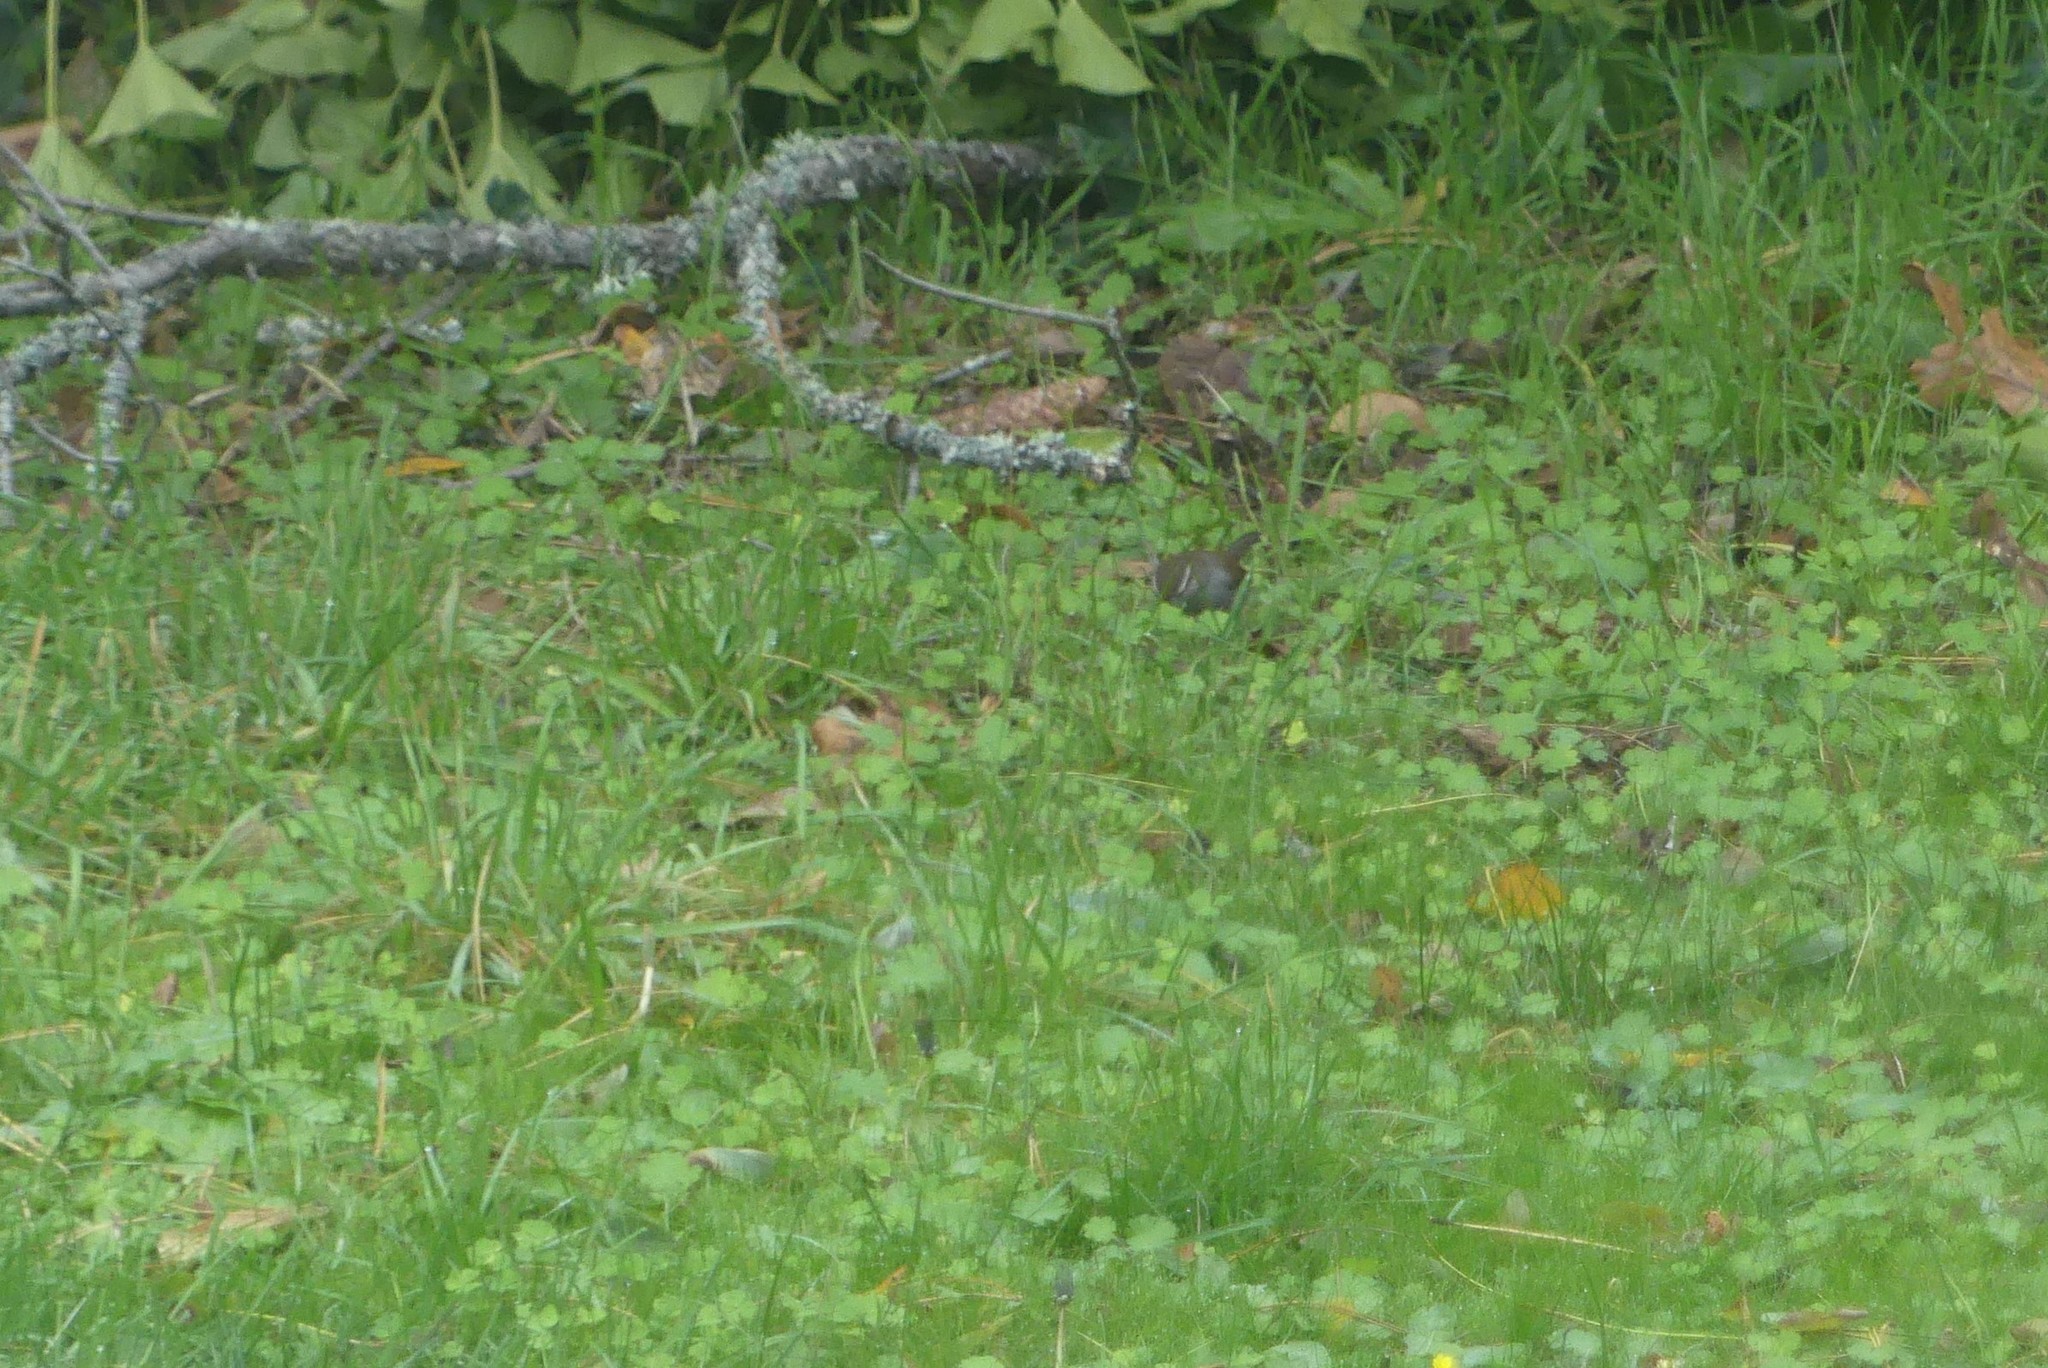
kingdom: Animalia
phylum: Chordata
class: Aves
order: Passeriformes
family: Troglodytidae
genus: Thryomanes
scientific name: Thryomanes bewickii
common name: Bewick's wren
